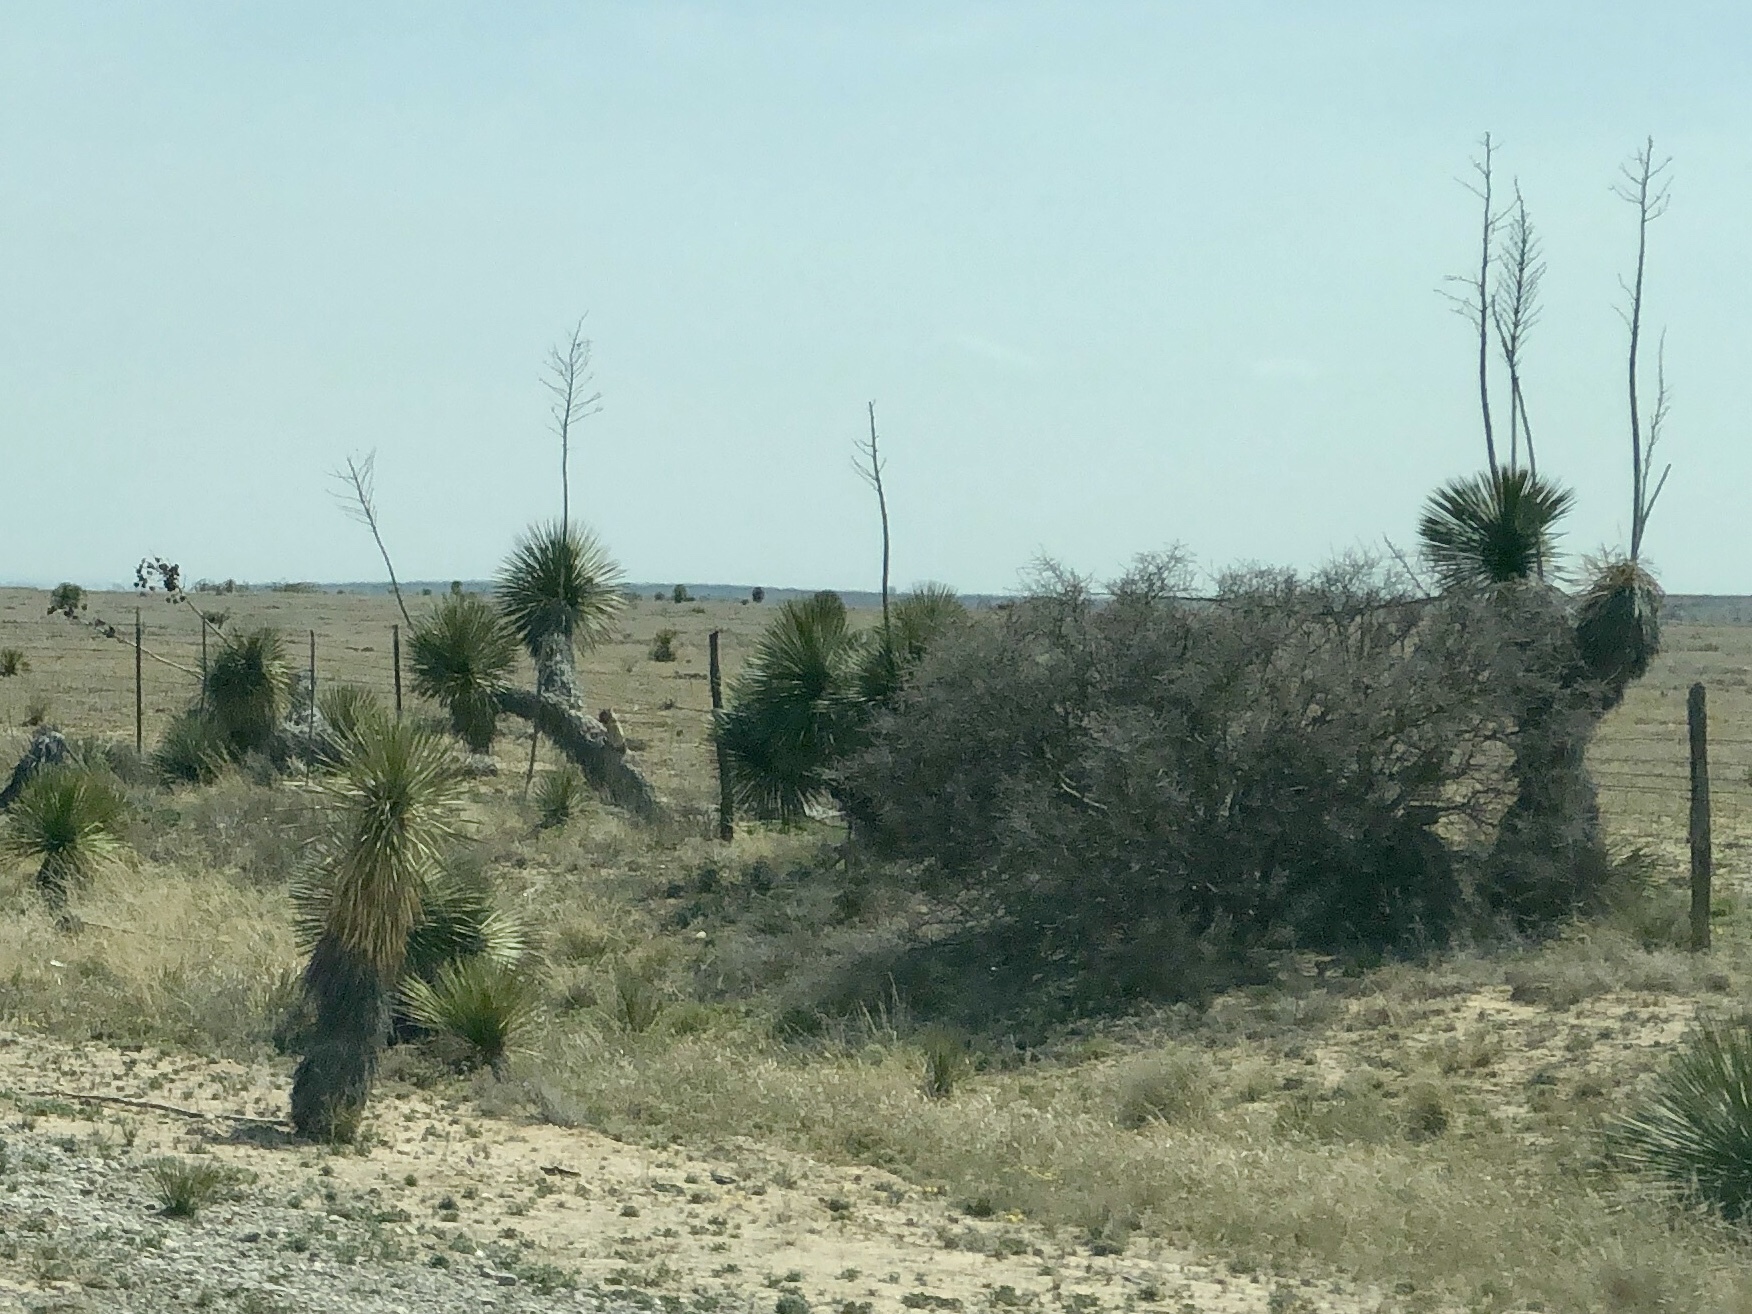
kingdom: Plantae
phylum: Tracheophyta
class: Liliopsida
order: Asparagales
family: Asparagaceae
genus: Yucca
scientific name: Yucca elata
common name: Palmella
